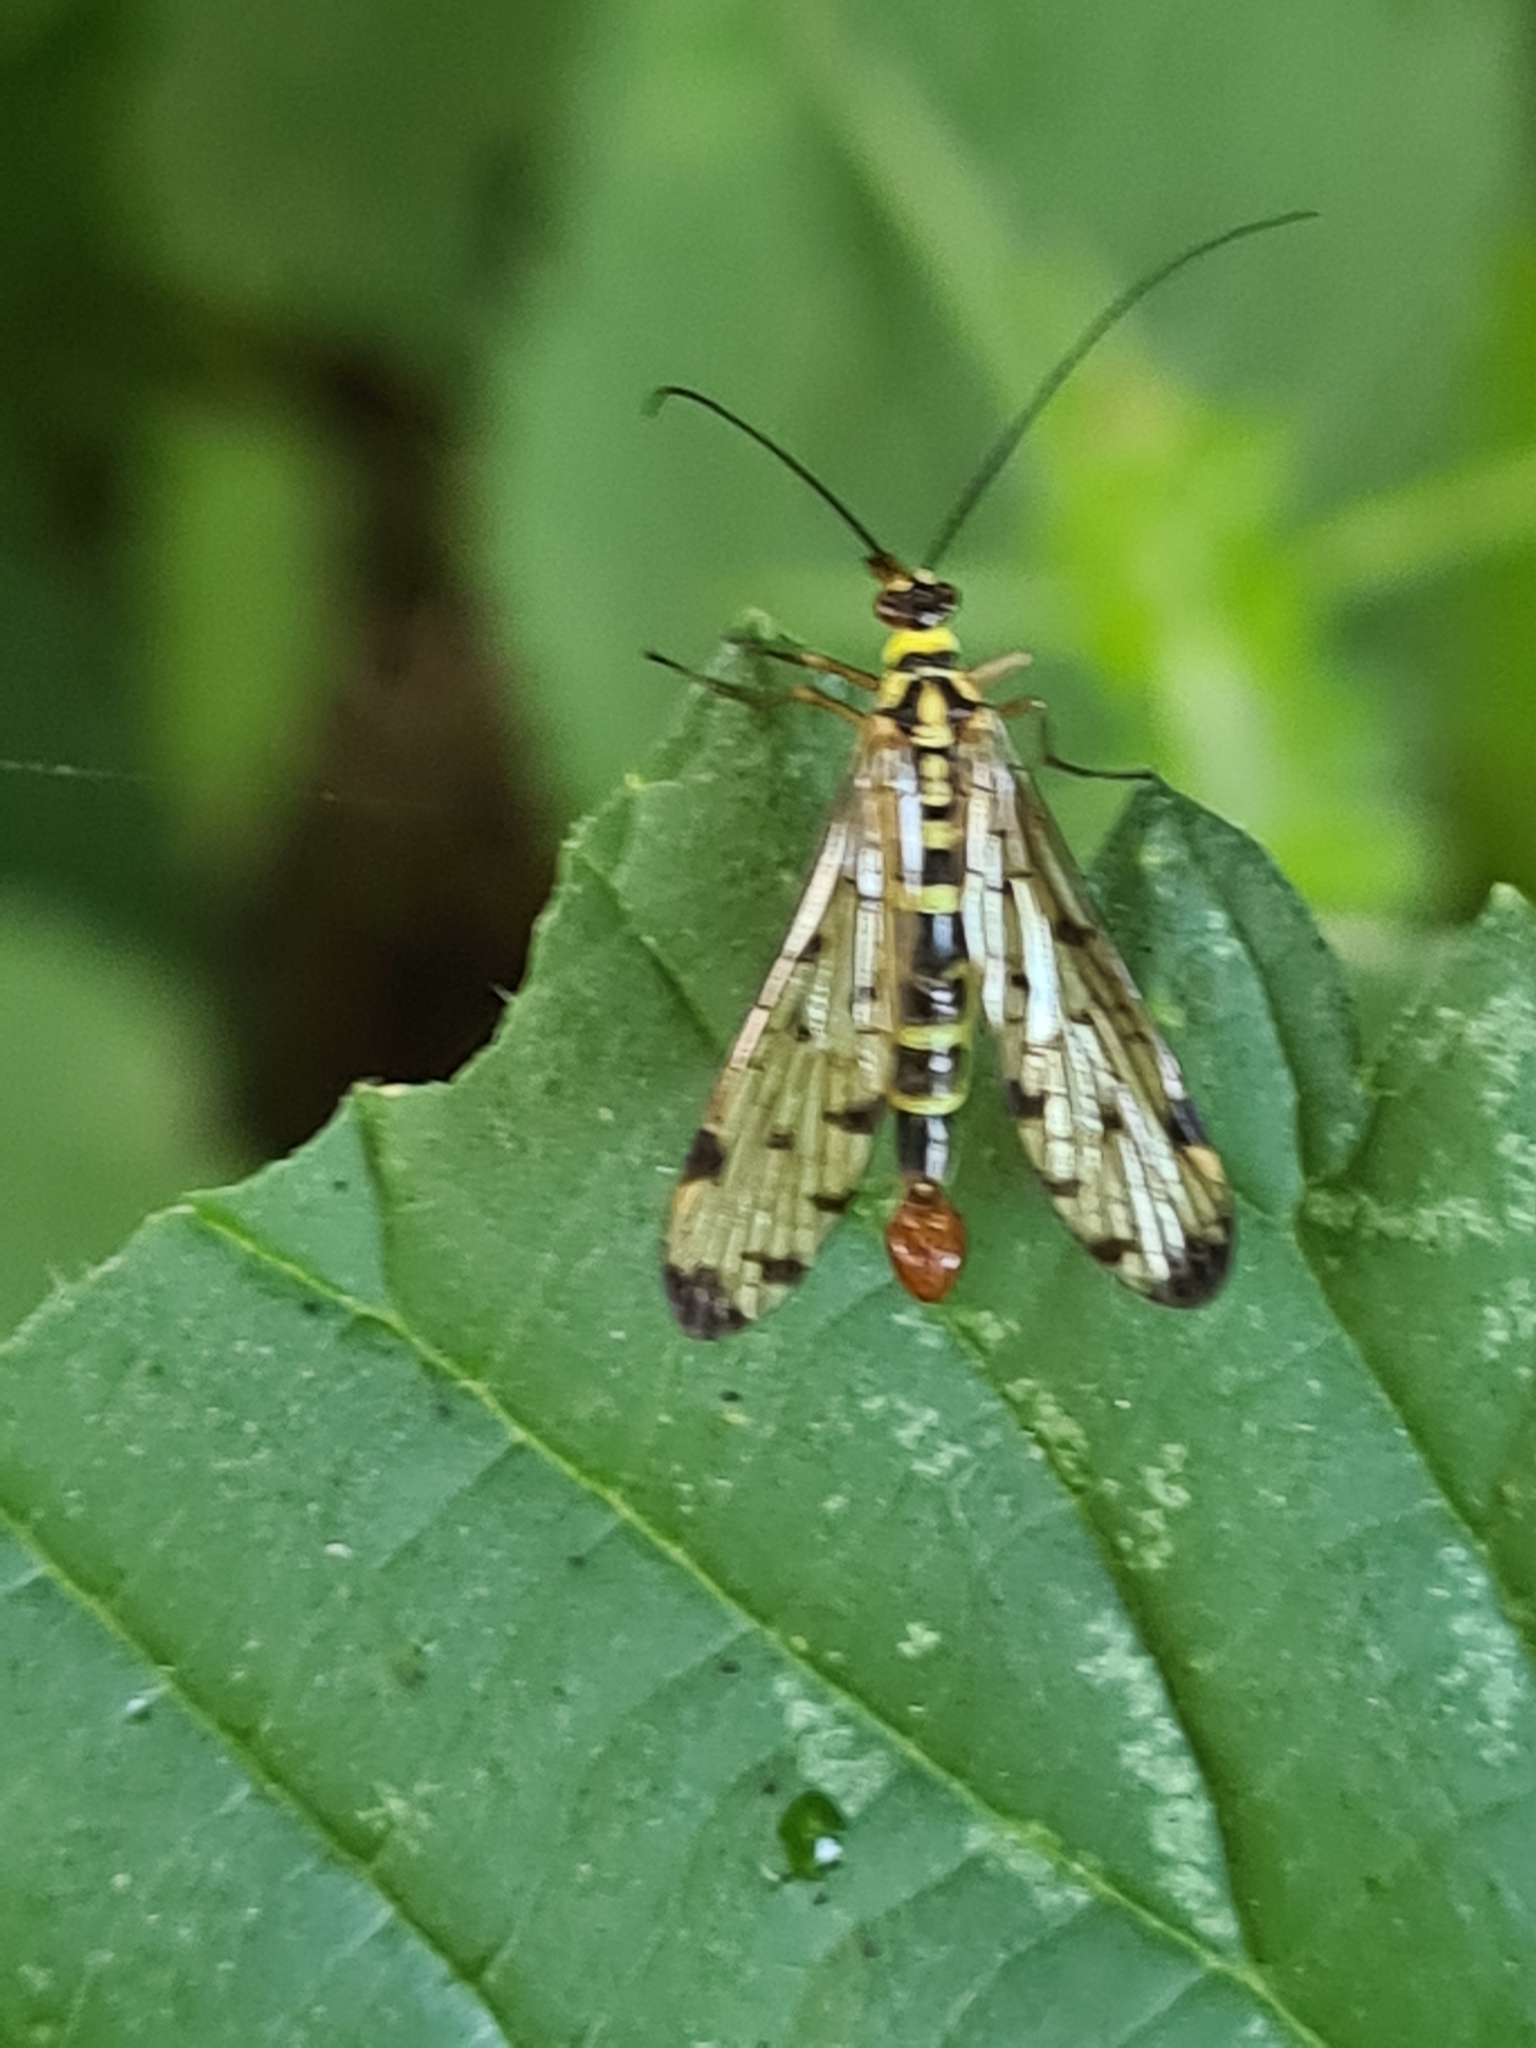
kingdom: Animalia
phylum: Arthropoda
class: Insecta
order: Mecoptera
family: Panorpidae
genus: Panorpa
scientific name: Panorpa germanica
